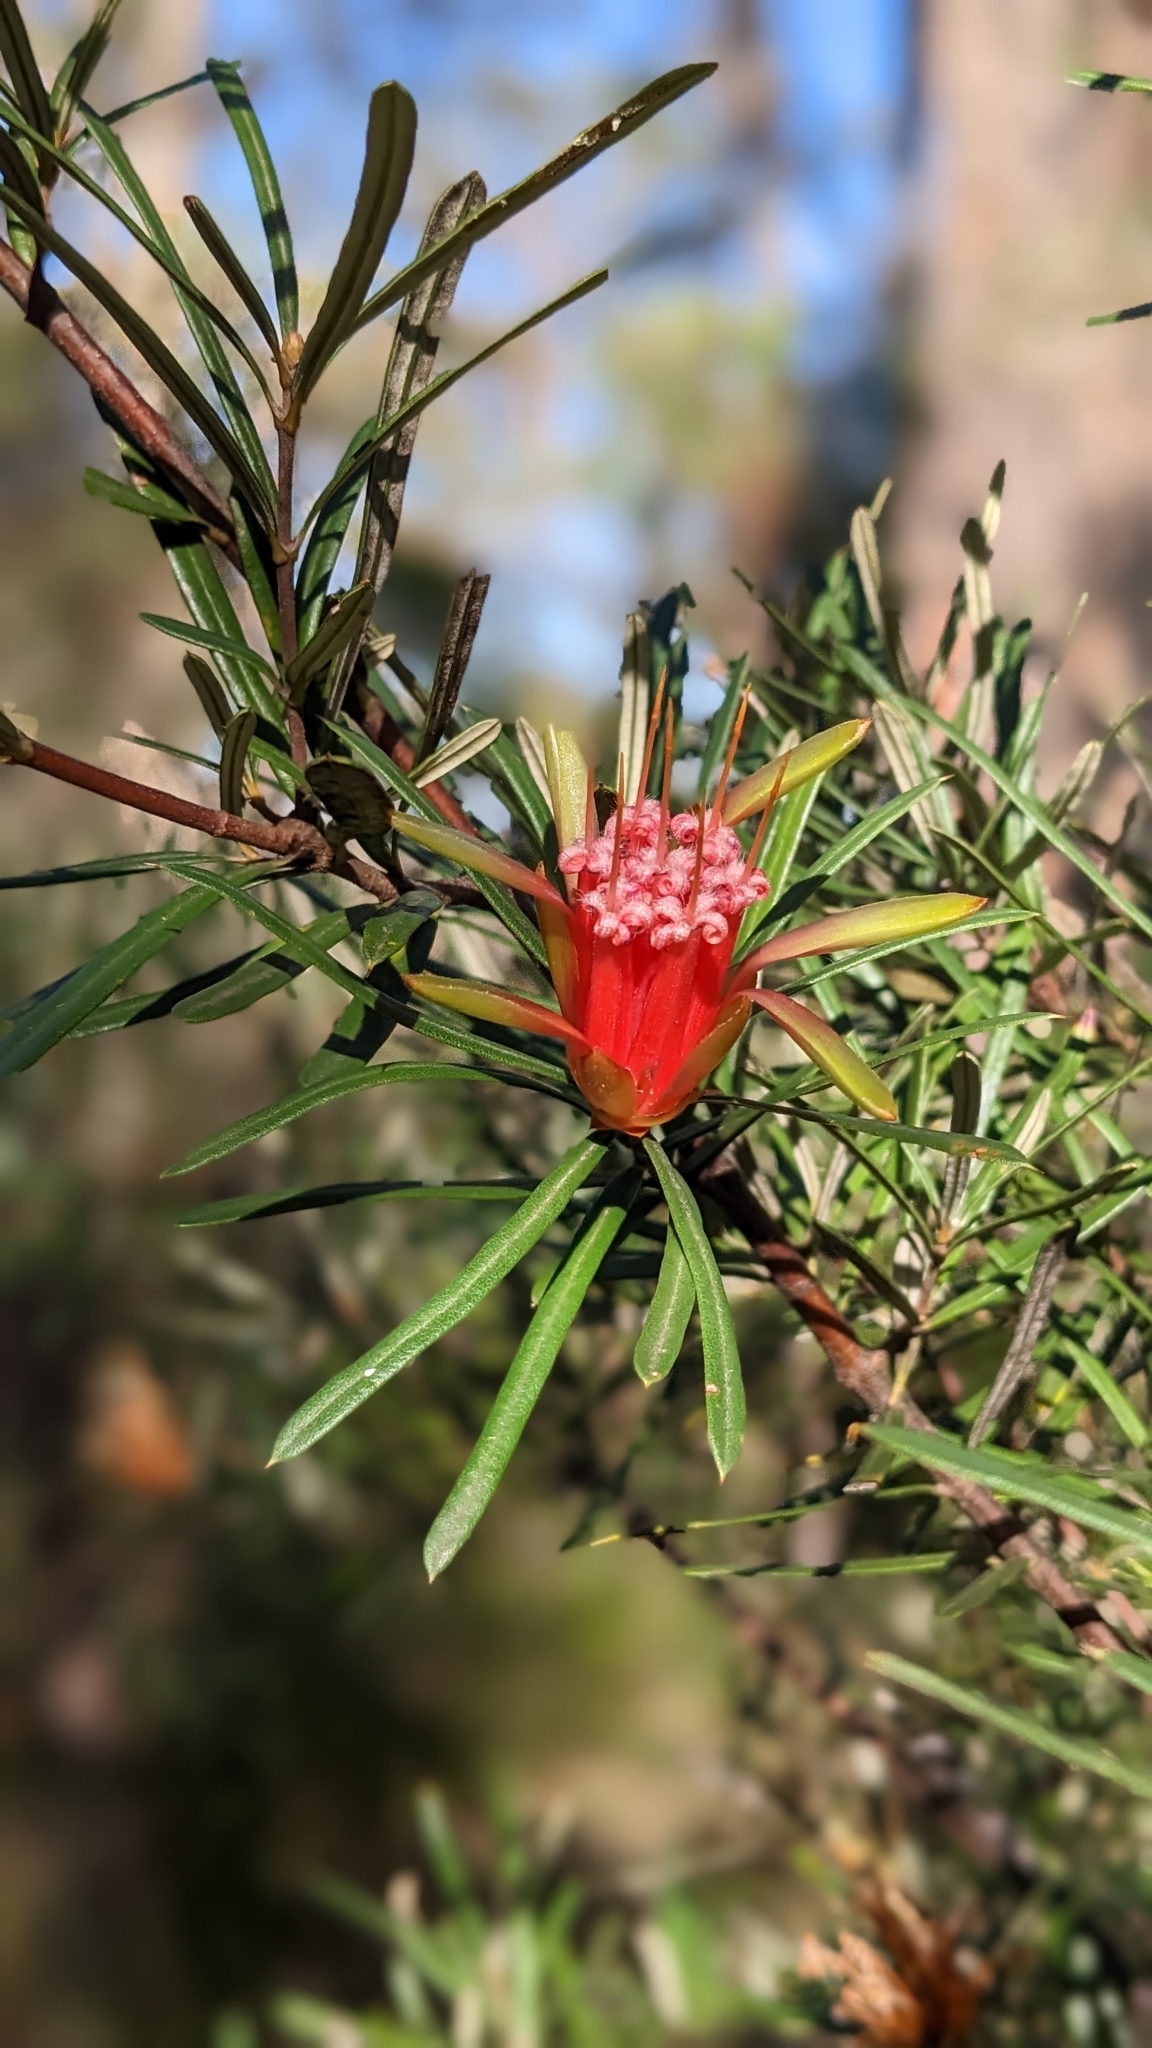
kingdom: Plantae
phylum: Tracheophyta
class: Magnoliopsida
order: Proteales
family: Proteaceae
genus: Lambertia
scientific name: Lambertia formosa
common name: Mountain-devil
